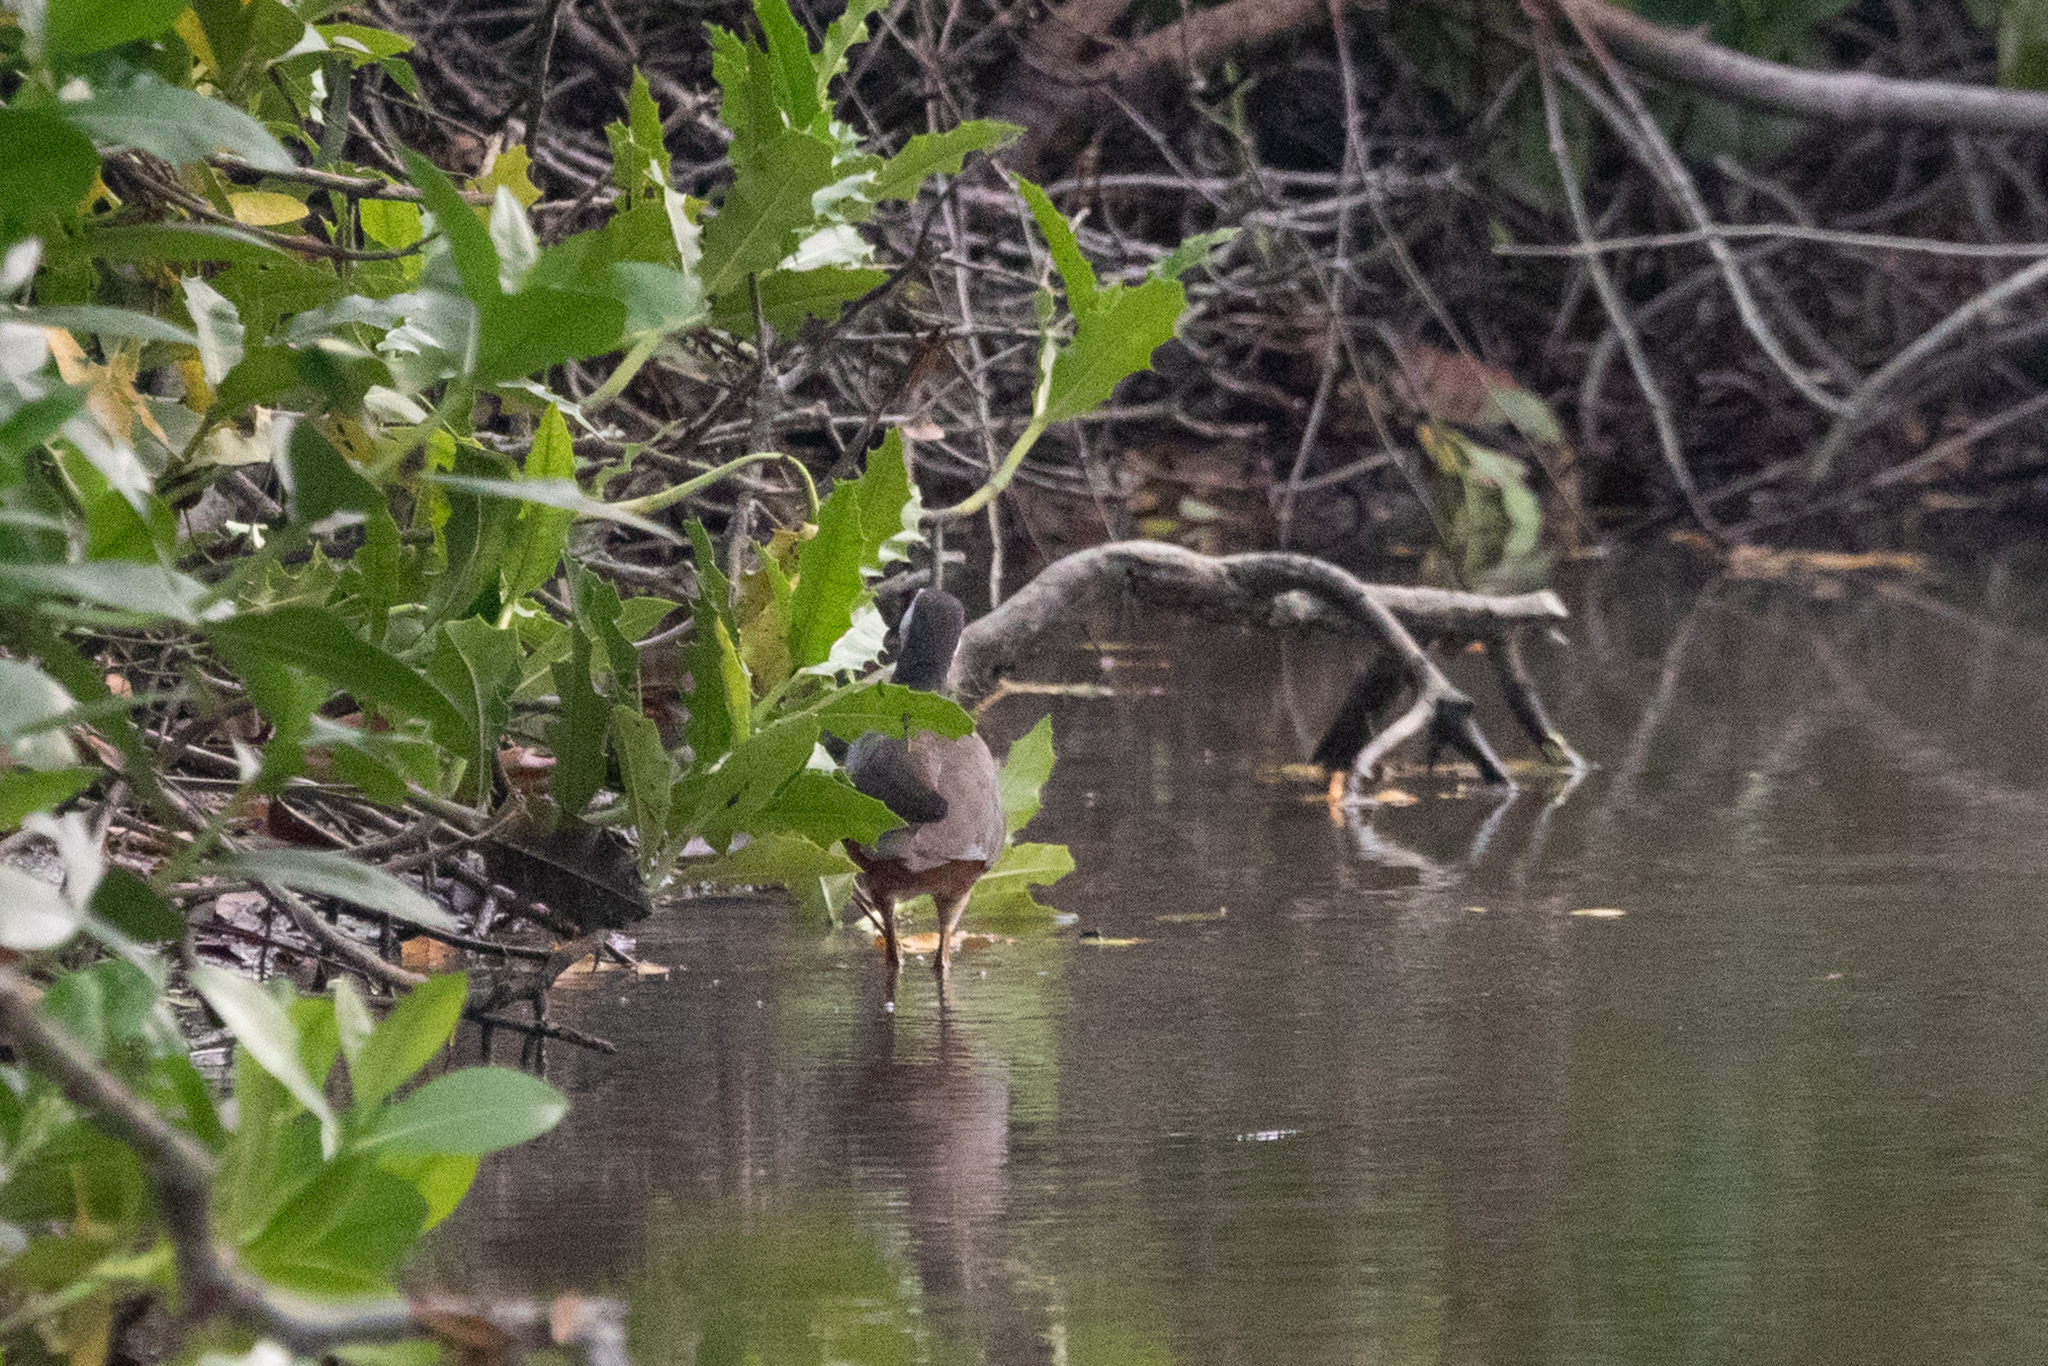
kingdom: Animalia
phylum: Chordata
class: Aves
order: Gruiformes
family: Rallidae
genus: Amaurornis
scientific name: Amaurornis phoenicurus
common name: White-breasted waterhen
